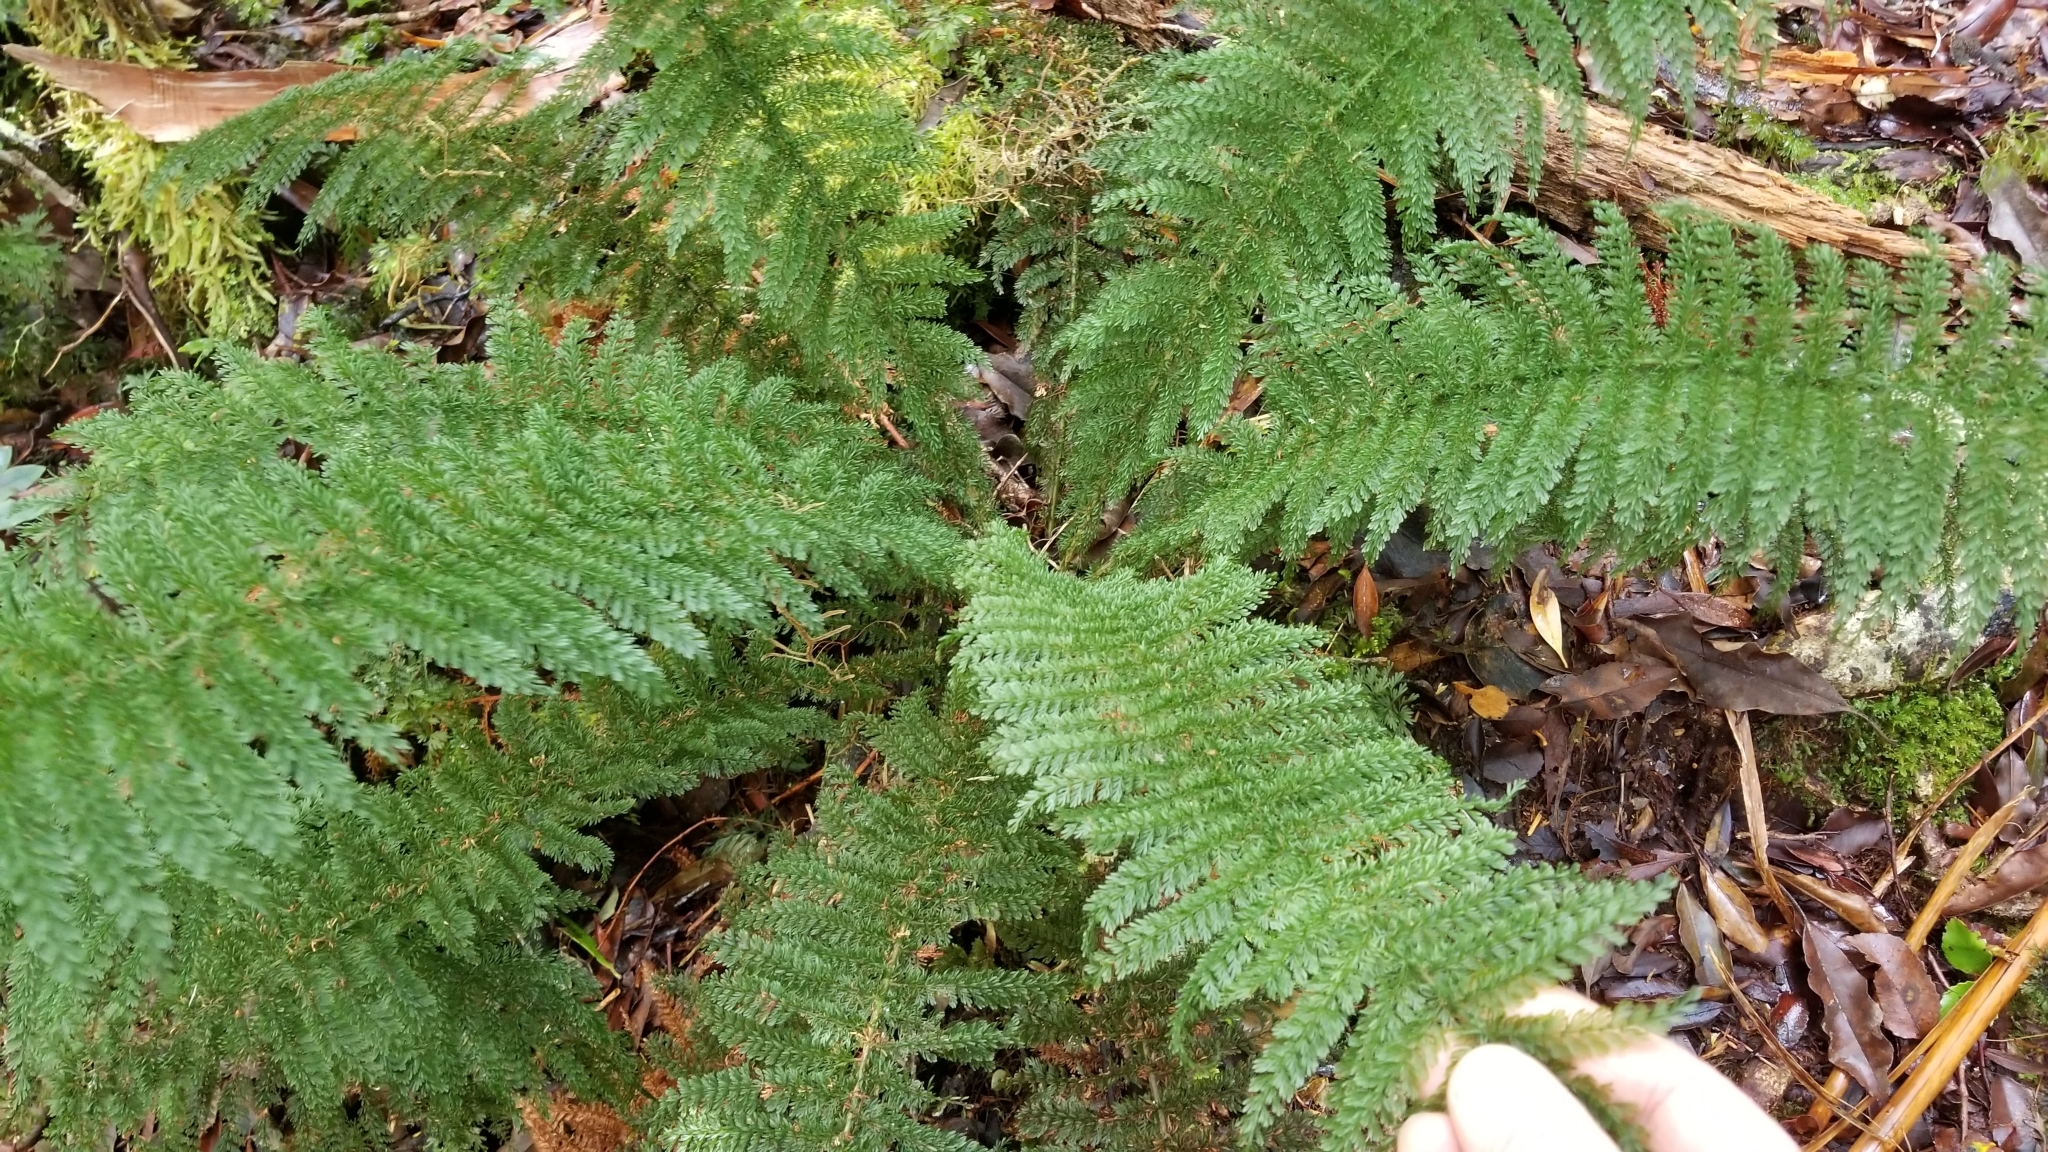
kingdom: Plantae
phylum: Tracheophyta
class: Polypodiopsida
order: Osmundales
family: Osmundaceae
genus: Leptopteris
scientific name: Leptopteris superba
